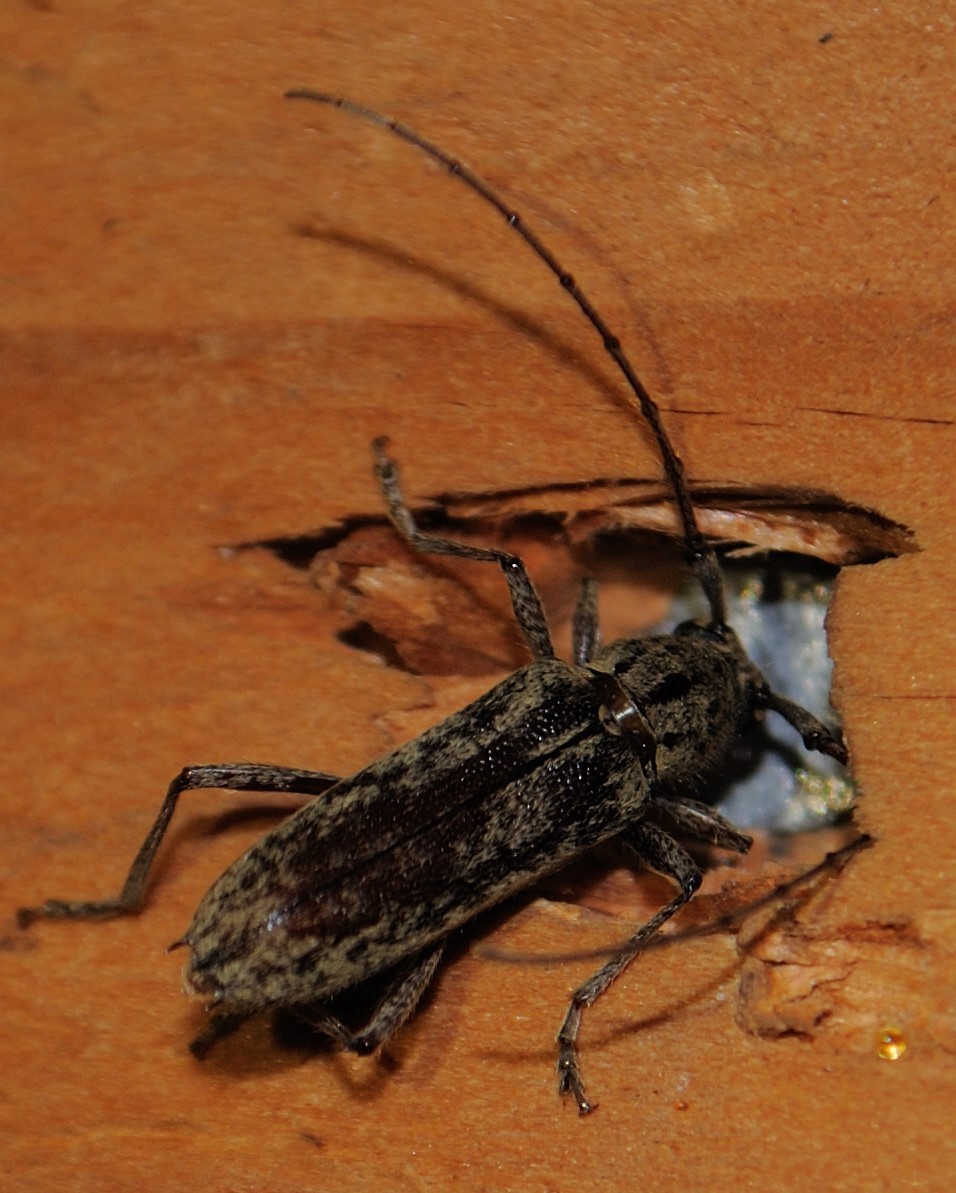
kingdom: Animalia
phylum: Arthropoda
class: Insecta
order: Coleoptera
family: Cerambycidae
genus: Elaphidion
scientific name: Elaphidion mucronatum
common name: Spined oak borer
